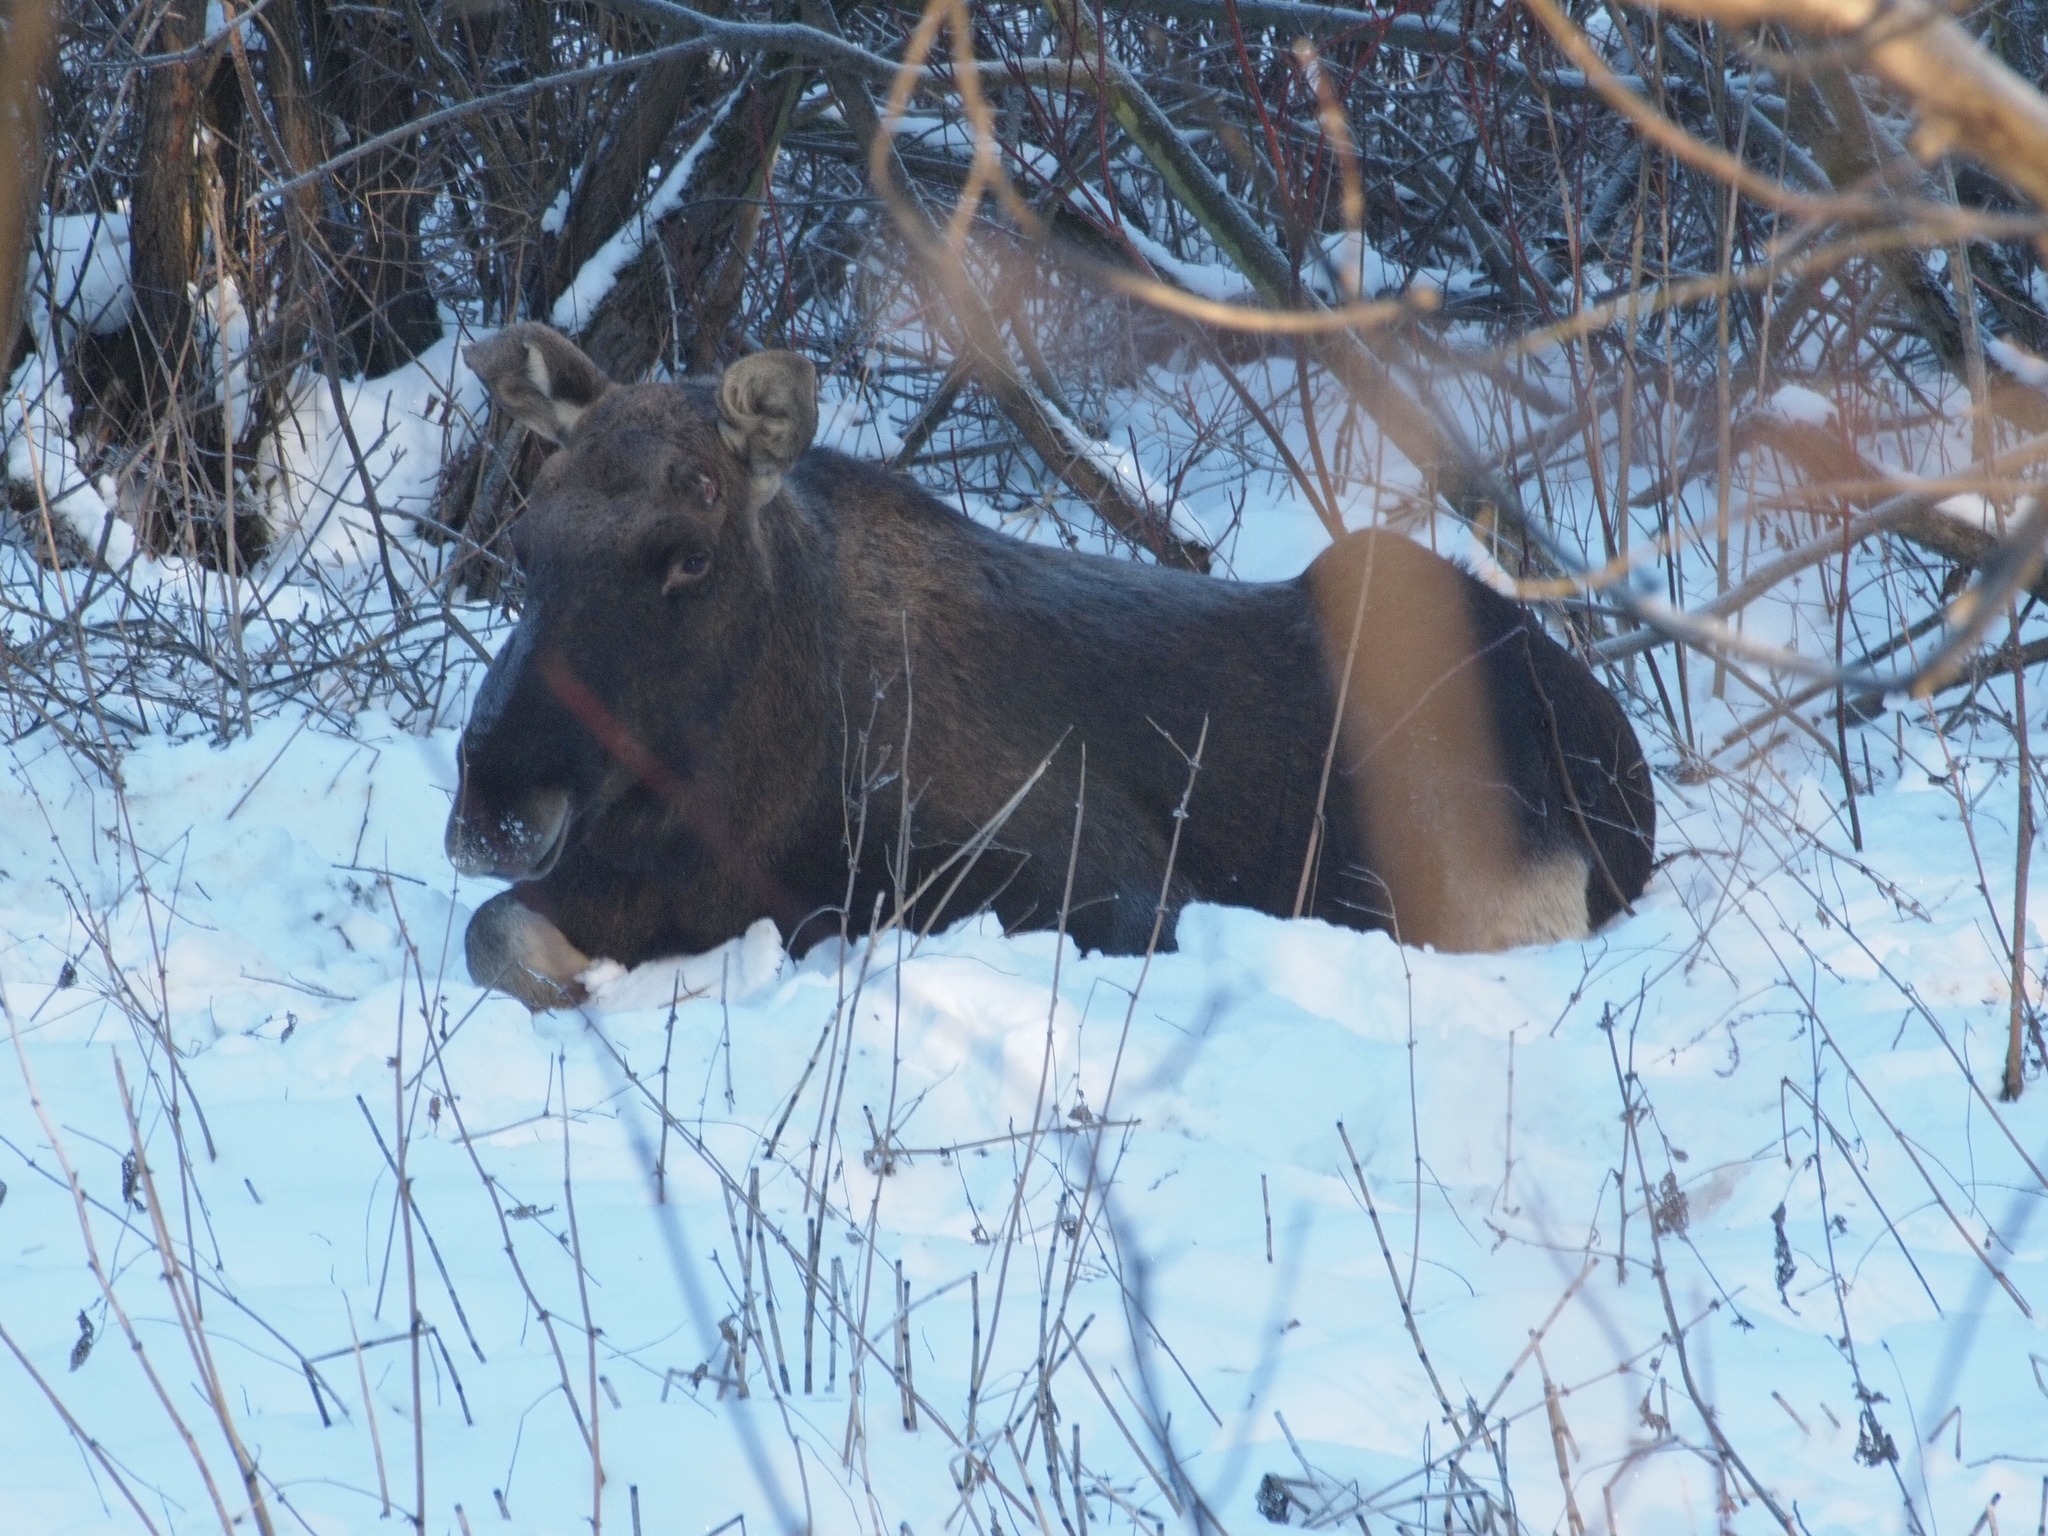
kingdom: Animalia
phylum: Chordata
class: Mammalia
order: Artiodactyla
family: Cervidae
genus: Alces
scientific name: Alces alces
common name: Moose
